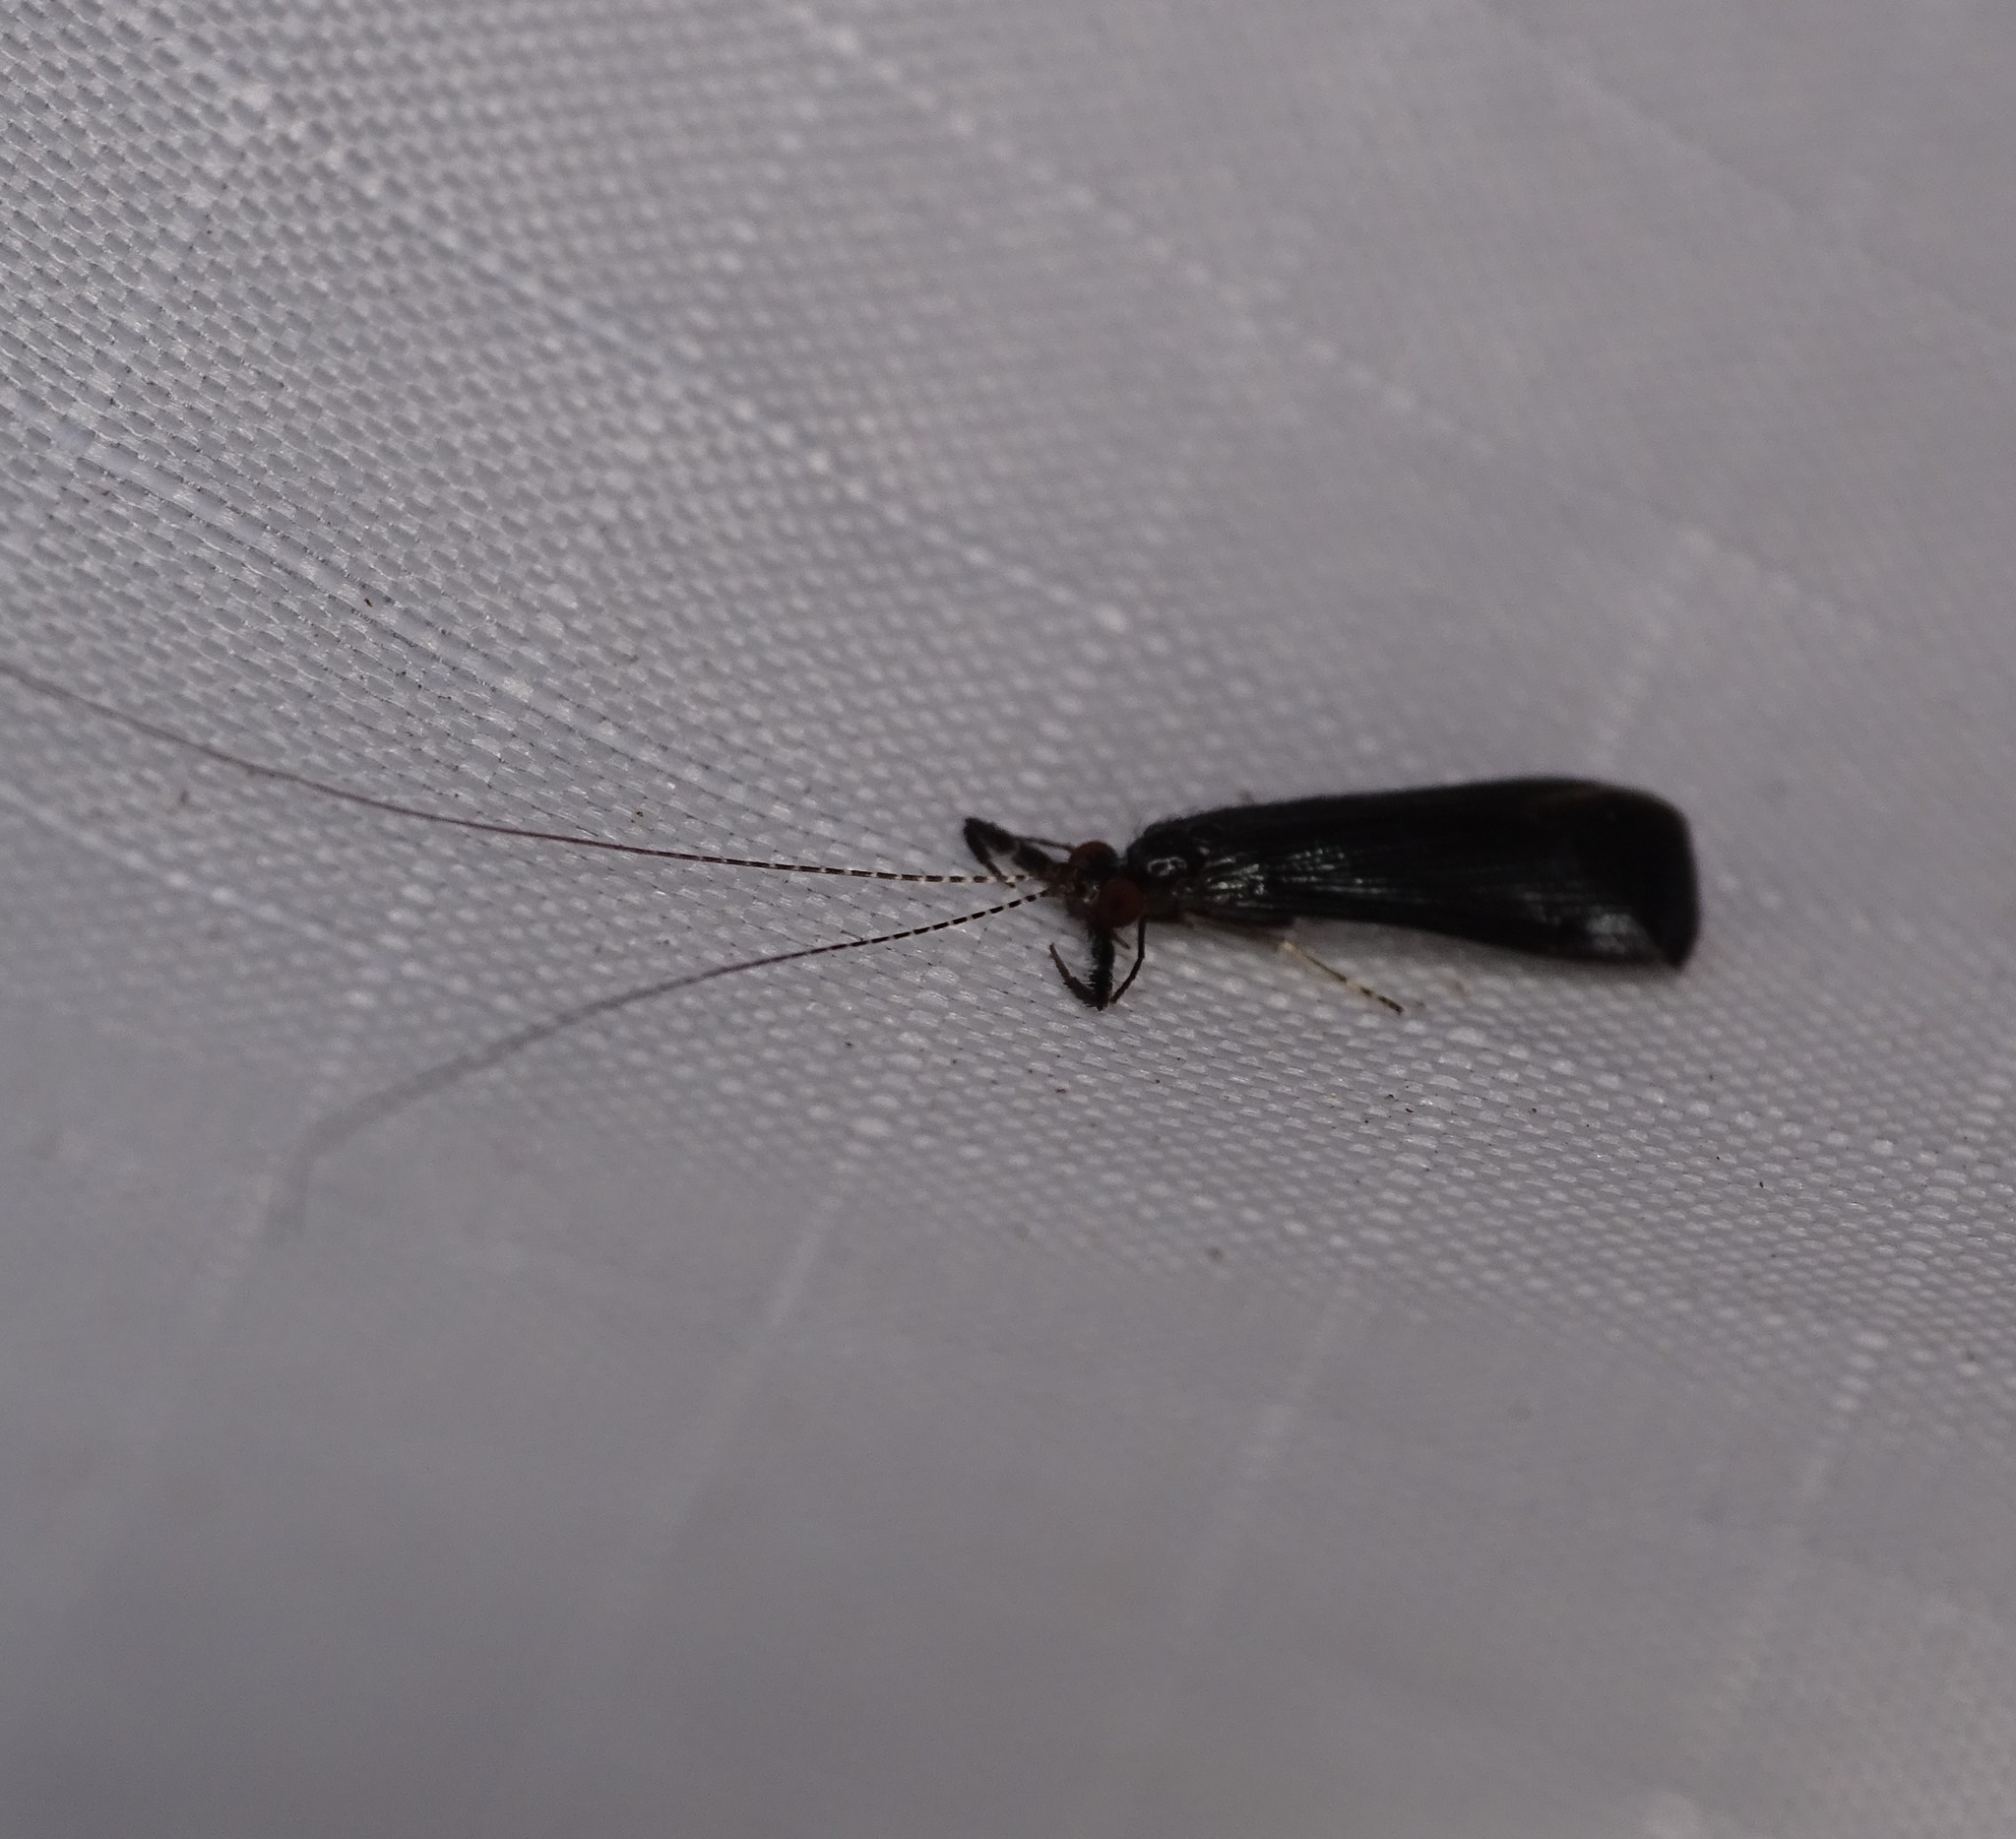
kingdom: Animalia
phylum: Arthropoda
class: Insecta
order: Trichoptera
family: Leptoceridae
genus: Mystacides
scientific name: Mystacides sepulchralis
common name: Black dancer caddisfly
